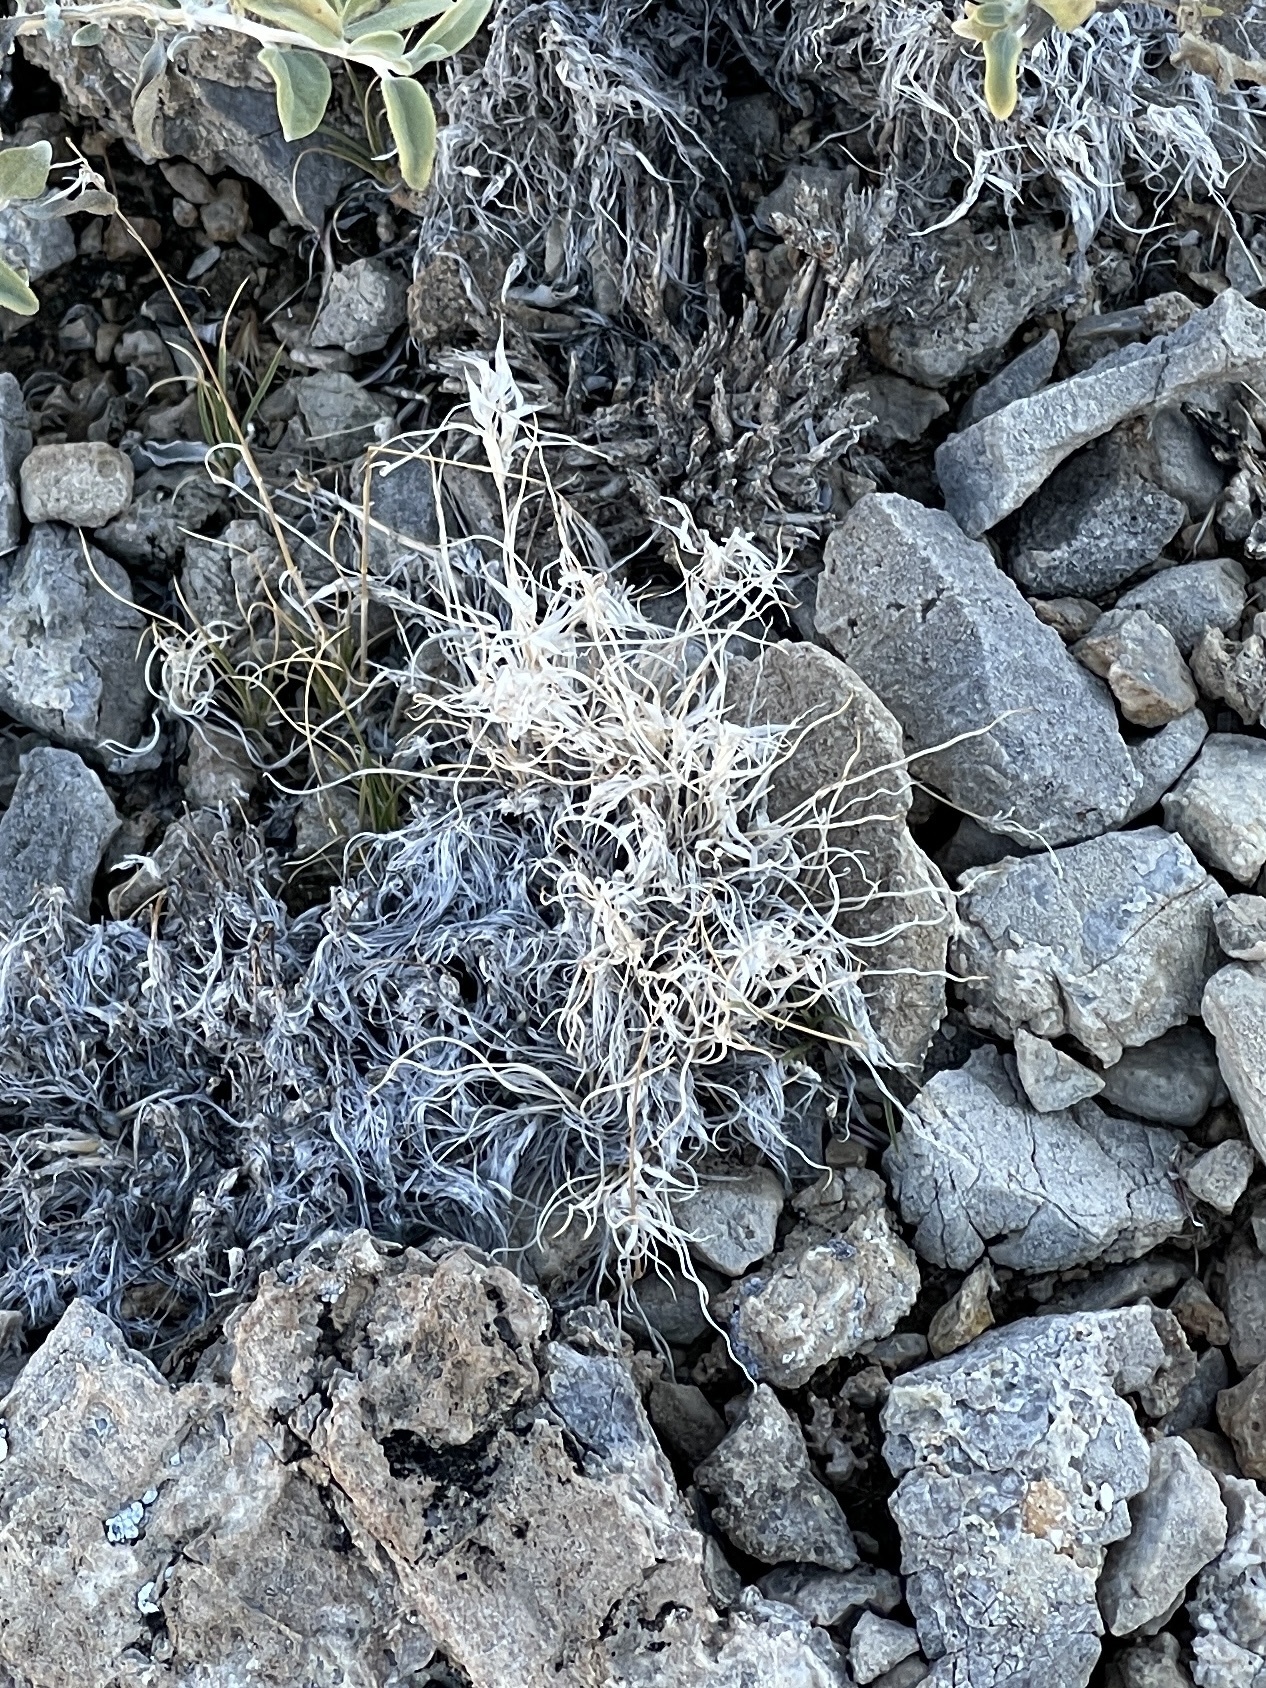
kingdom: Plantae
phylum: Tracheophyta
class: Liliopsida
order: Poales
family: Poaceae
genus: Dasyochloa
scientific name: Dasyochloa pulchella
